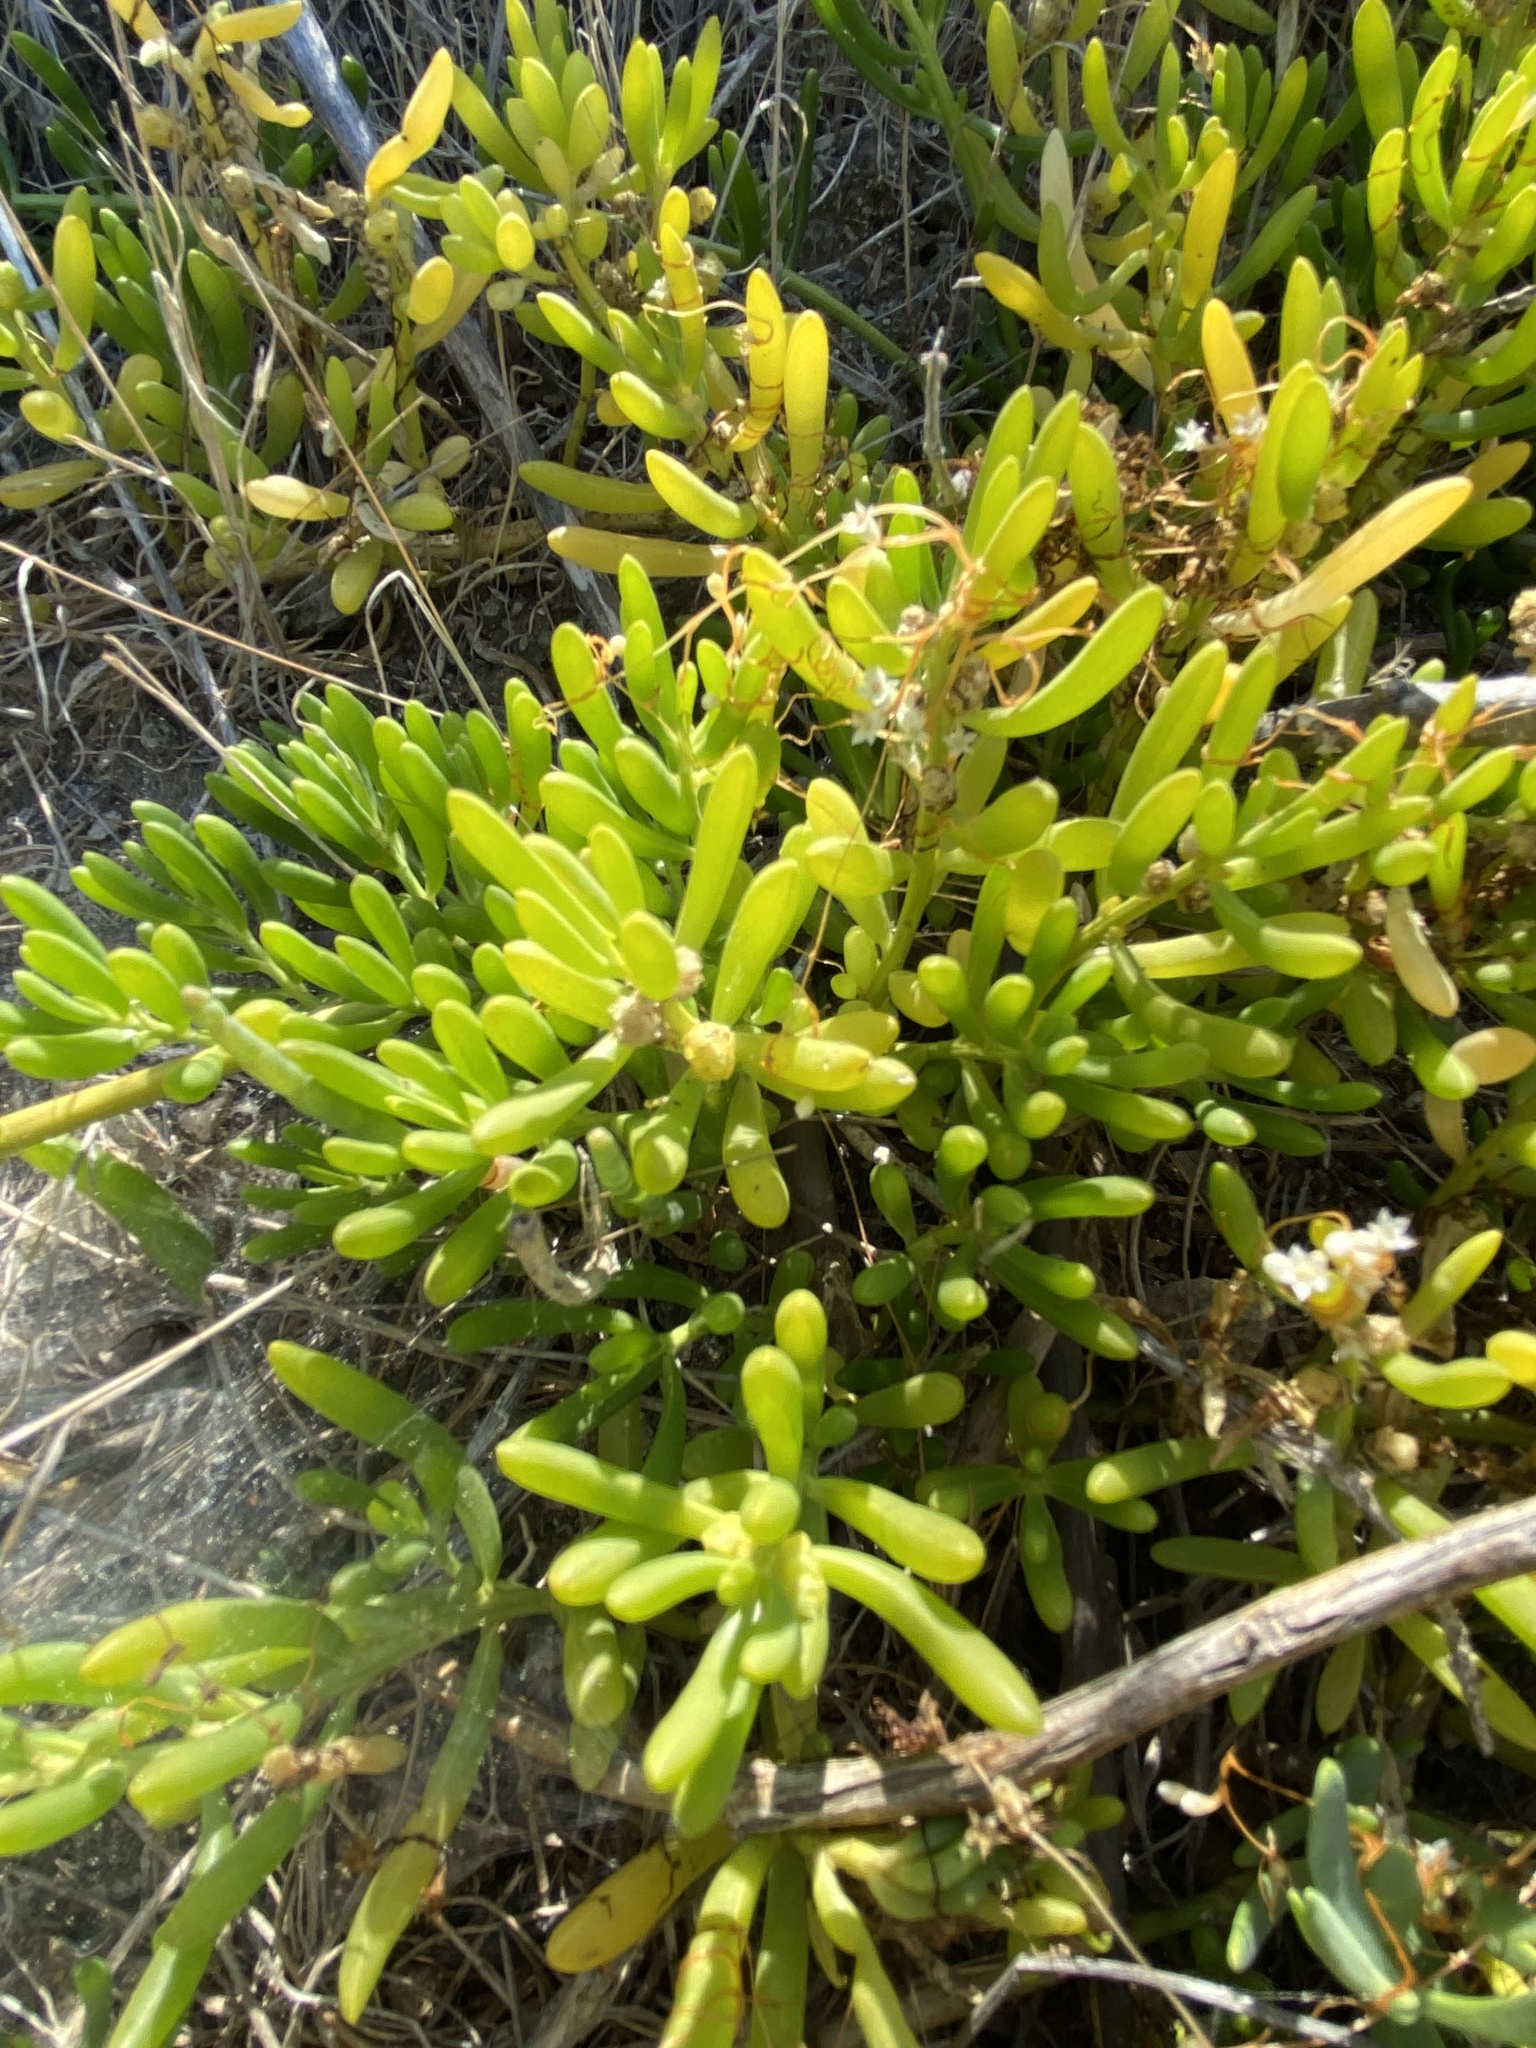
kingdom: Plantae
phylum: Tracheophyta
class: Magnoliopsida
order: Brassicales
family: Bataceae
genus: Batis
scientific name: Batis maritima
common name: Turtleweed
